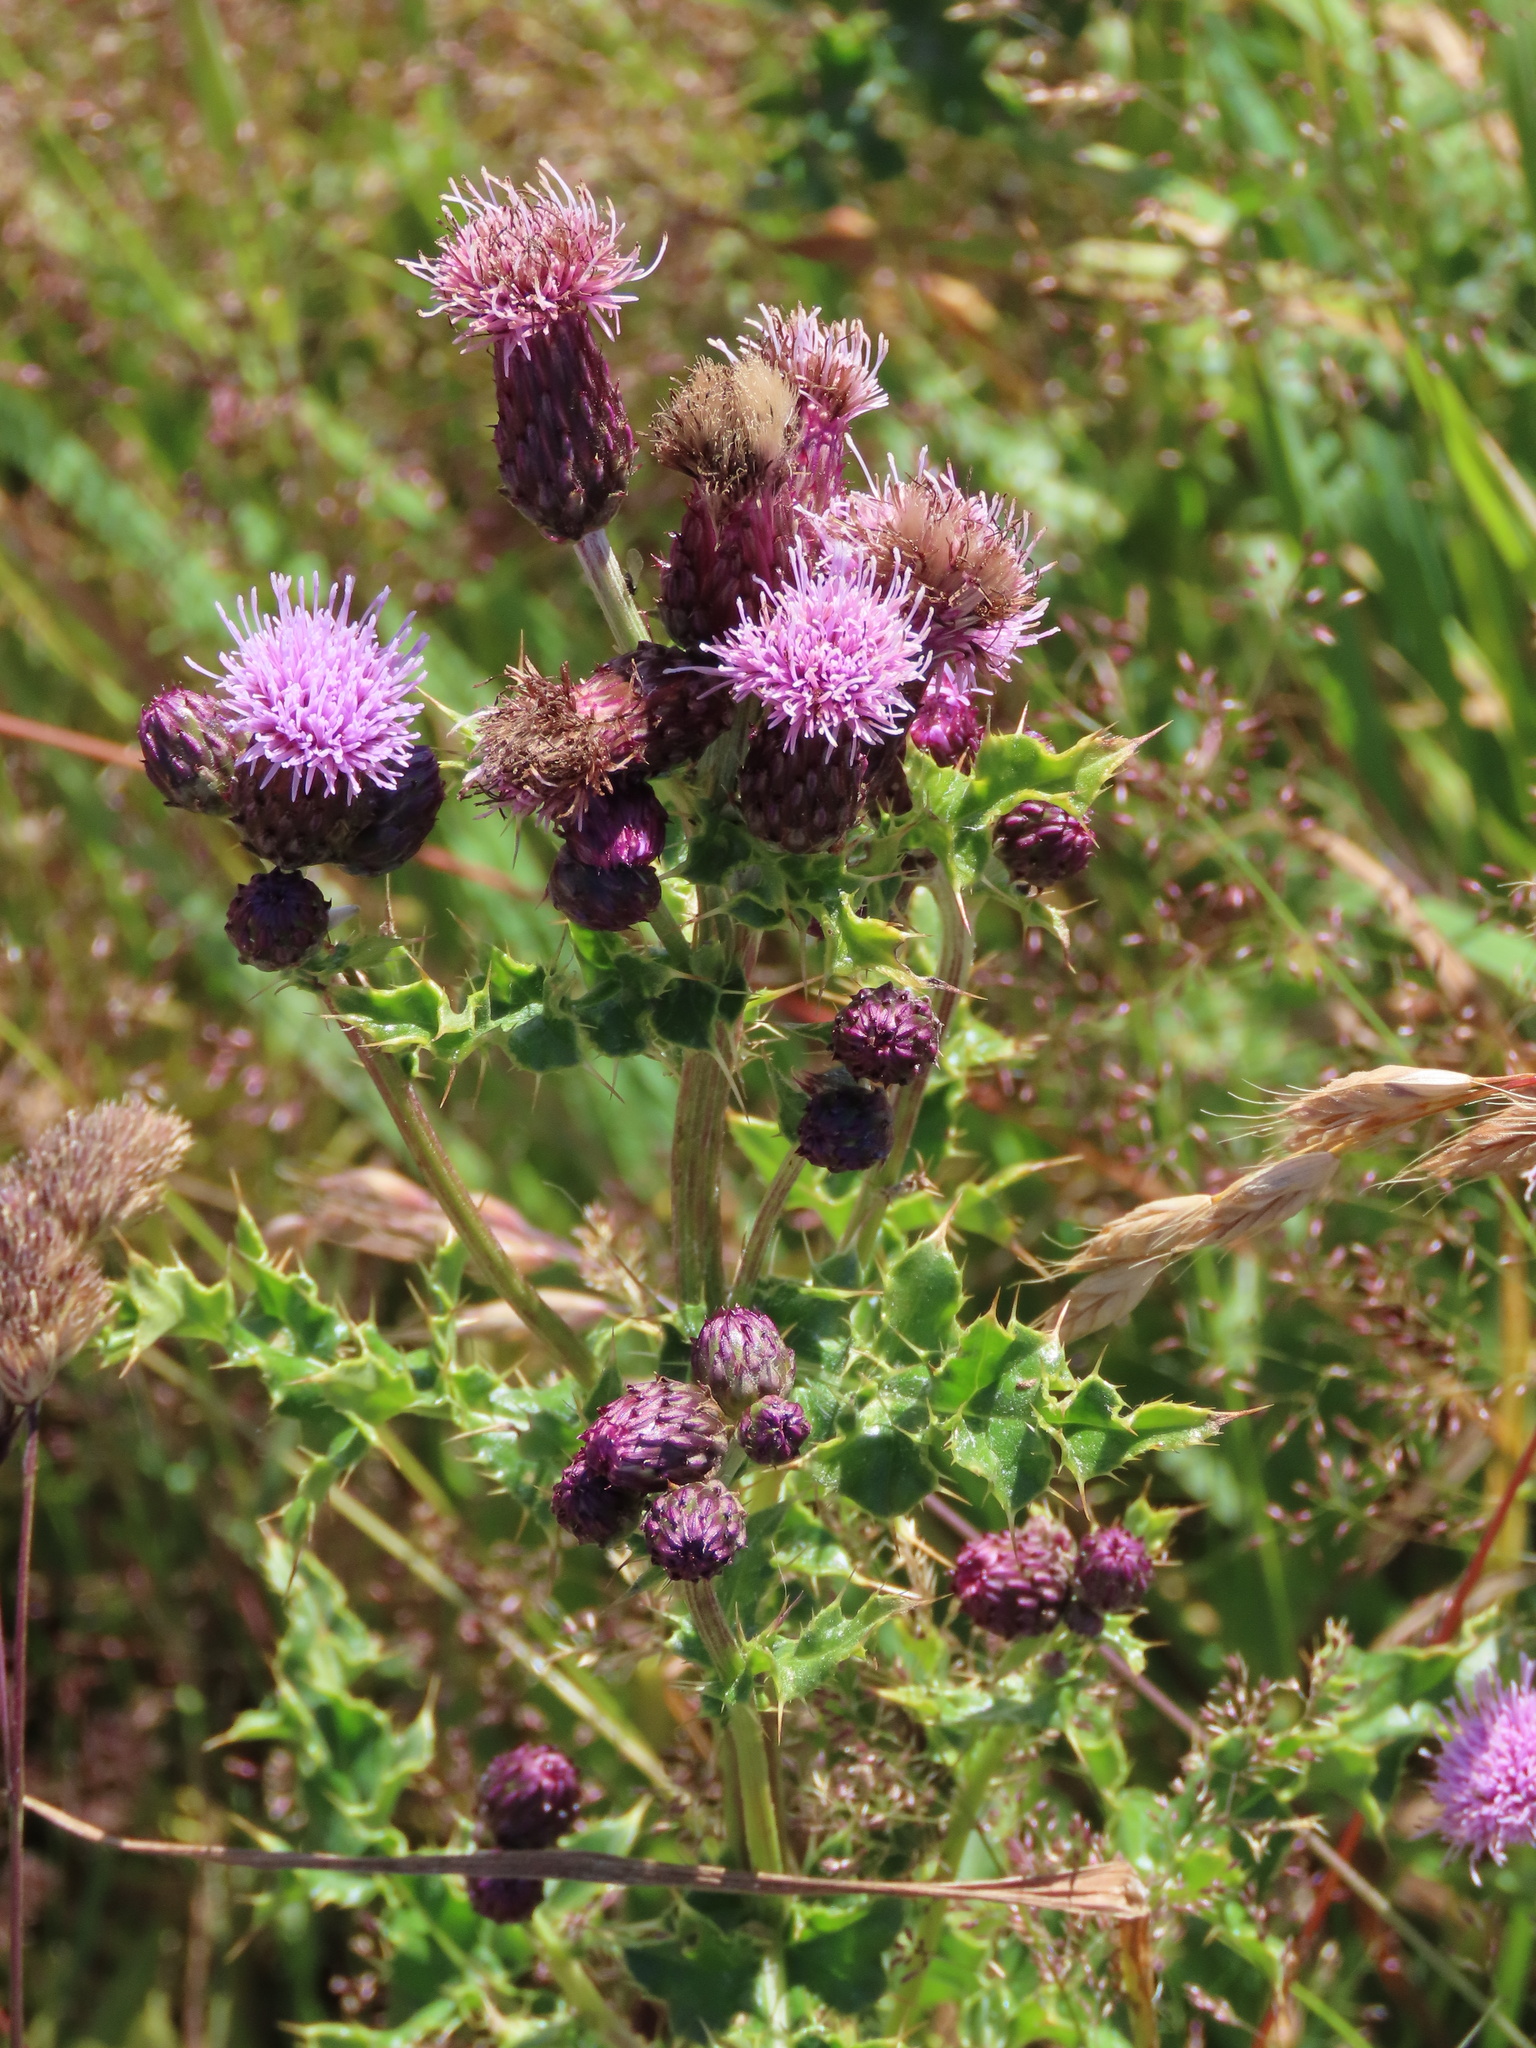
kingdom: Plantae
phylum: Tracheophyta
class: Magnoliopsida
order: Asterales
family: Asteraceae
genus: Cirsium
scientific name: Cirsium arvense
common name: Creeping thistle
